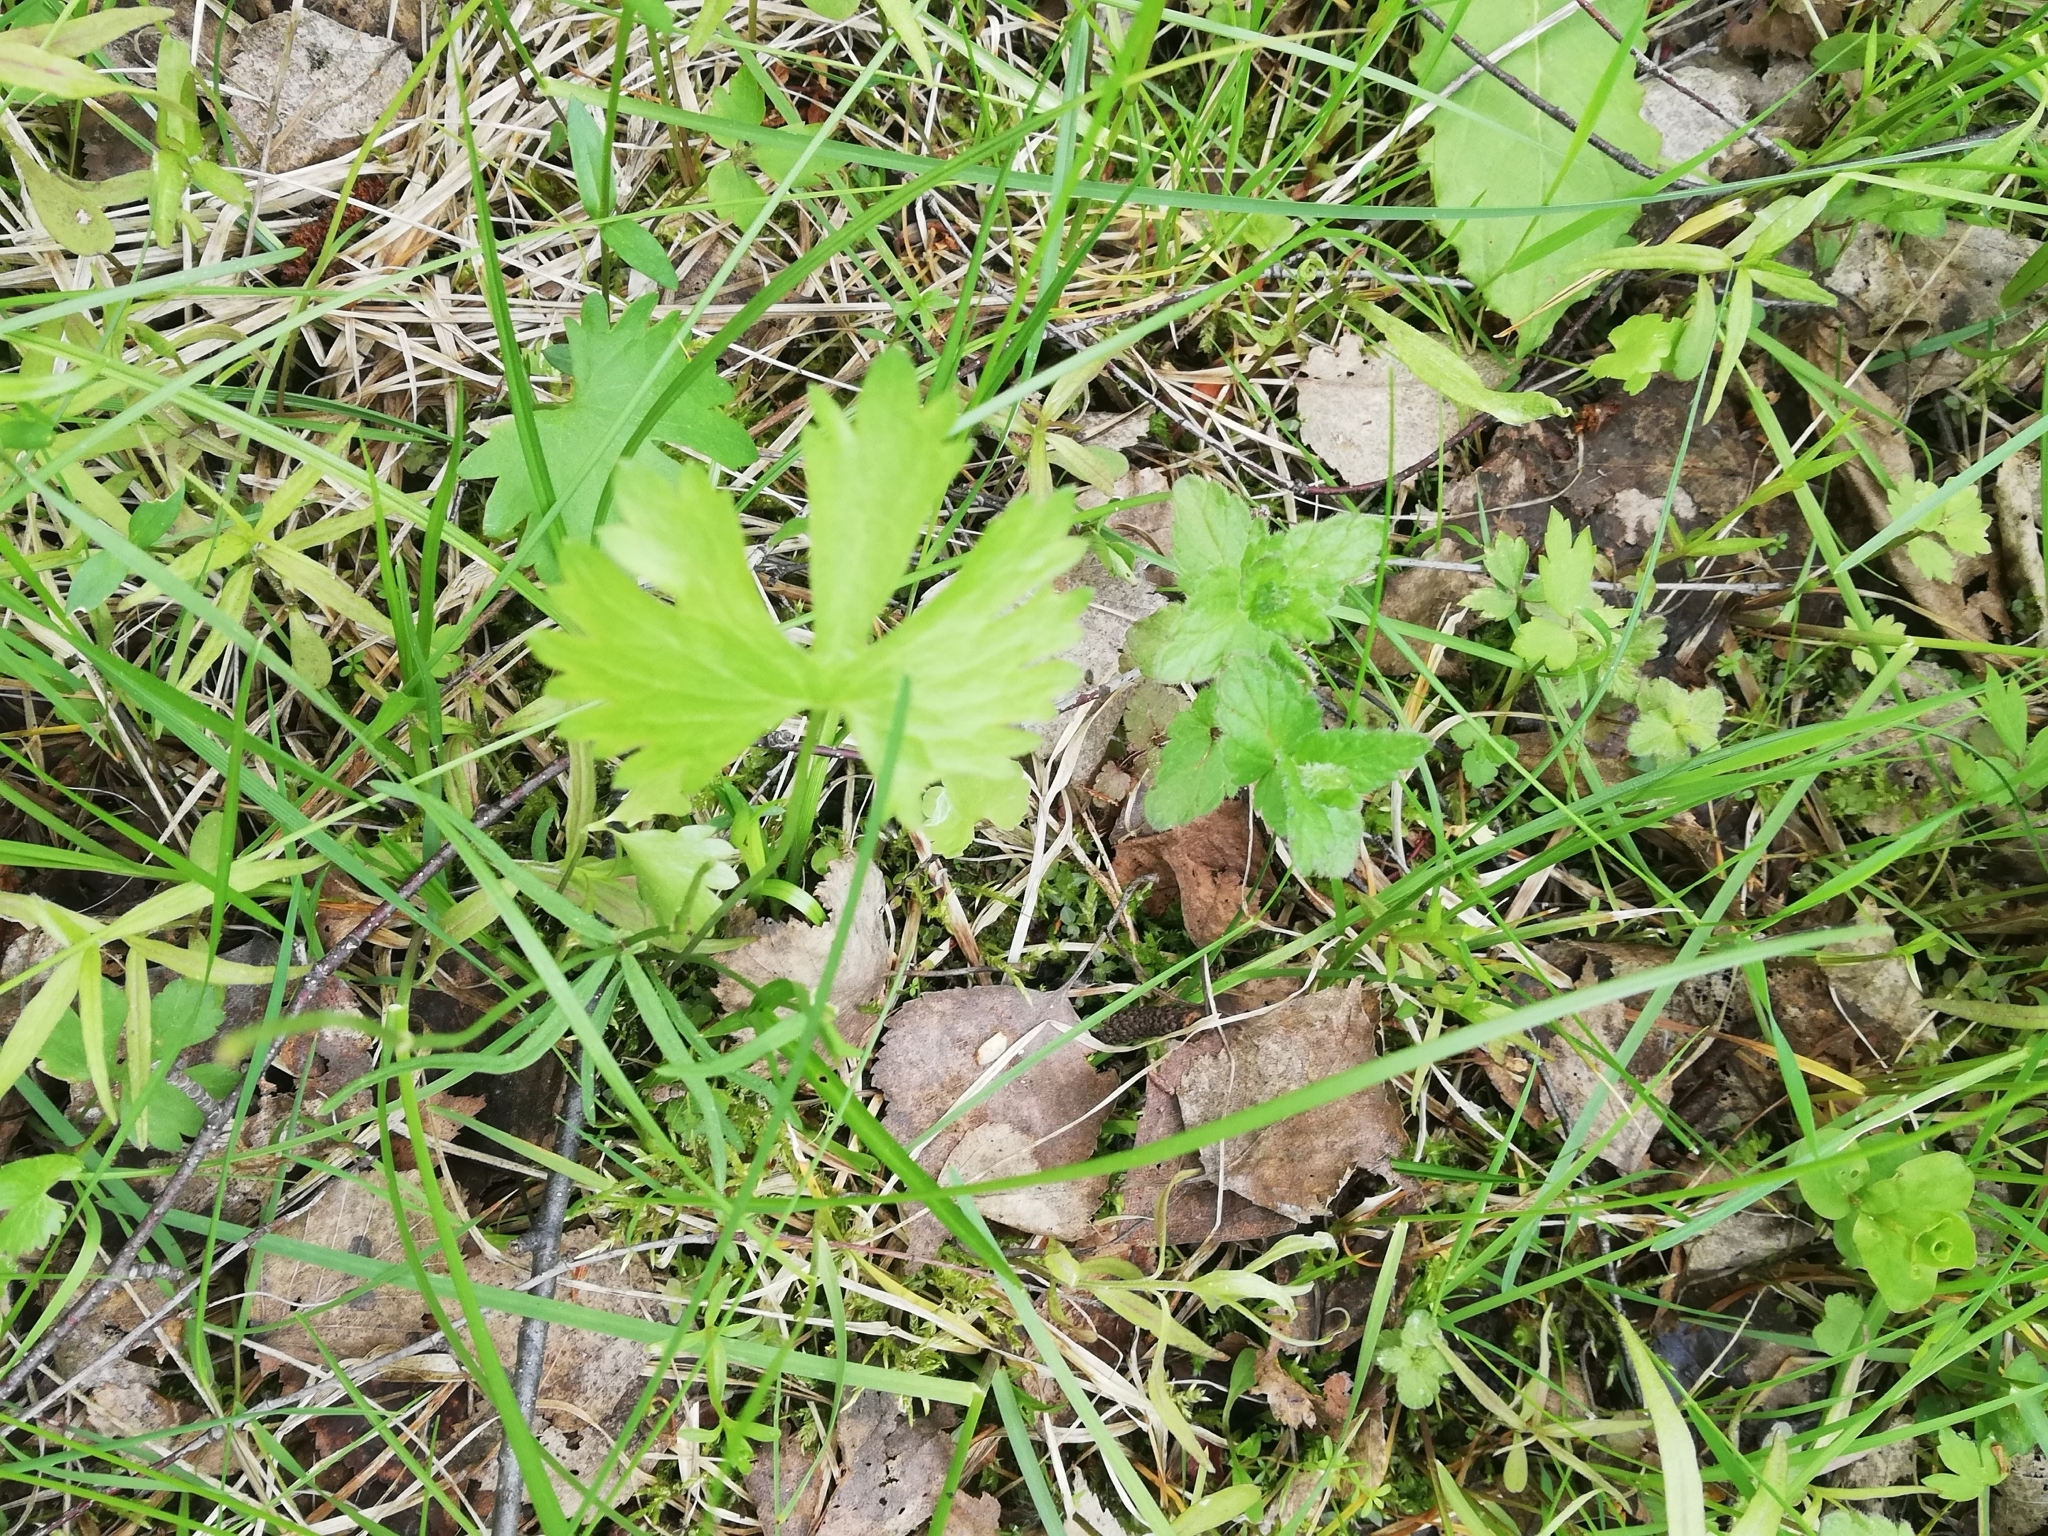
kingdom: Plantae
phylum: Tracheophyta
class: Magnoliopsida
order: Ranunculales
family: Ranunculaceae
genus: Ranunculus
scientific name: Ranunculus auricomus
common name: Goldilocks buttercup
